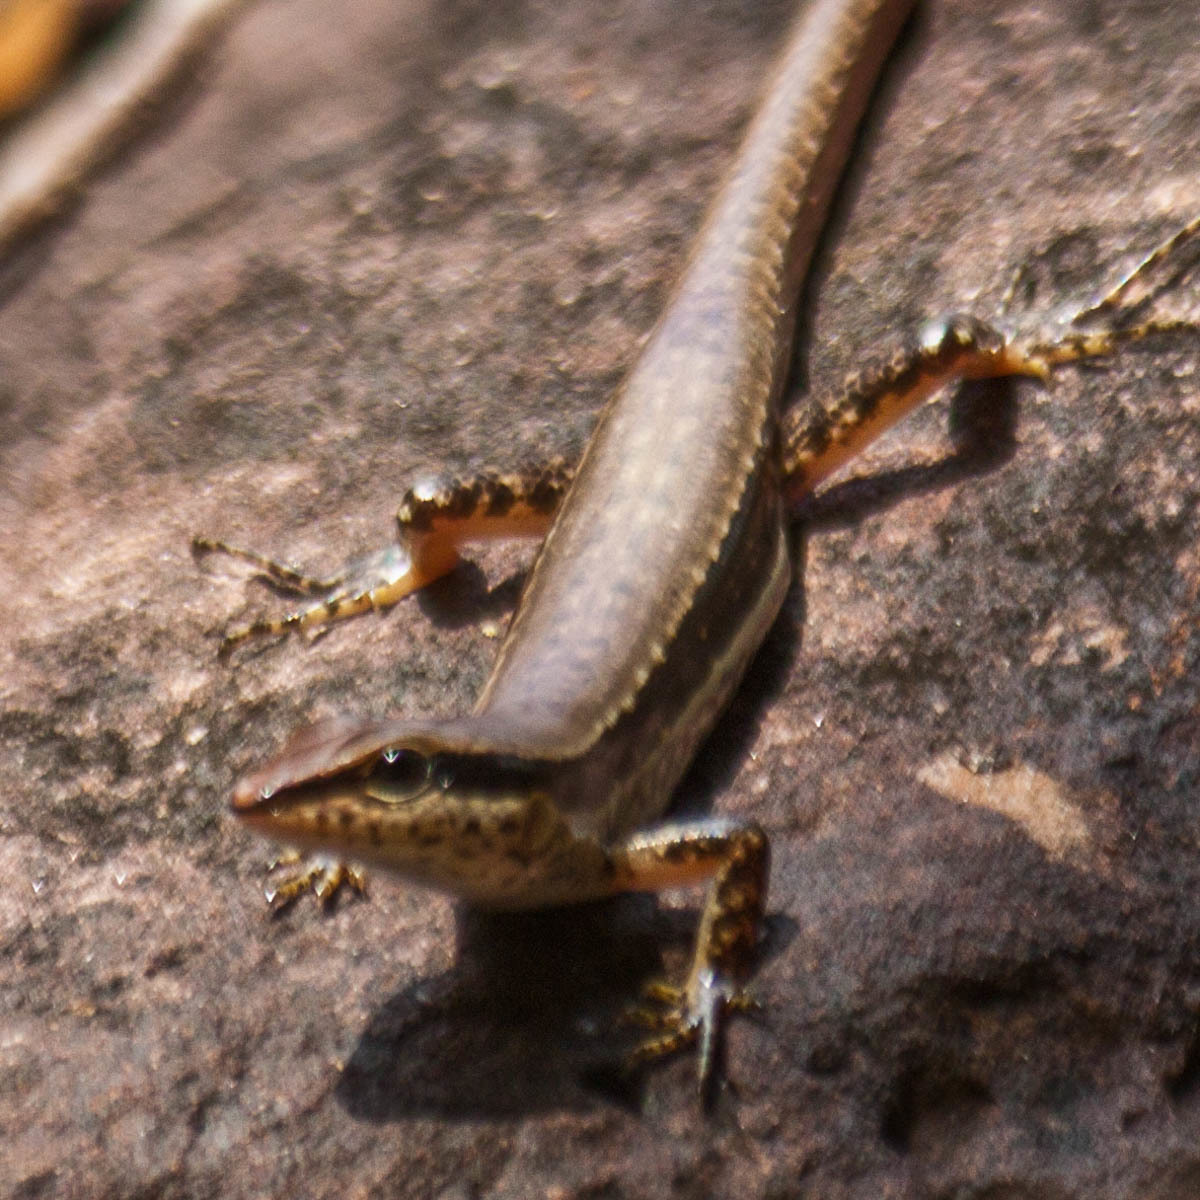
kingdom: Animalia
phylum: Chordata
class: Squamata
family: Scincidae
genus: Sphenomorphus
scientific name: Sphenomorphus maculatus
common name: Maculated forest skink
